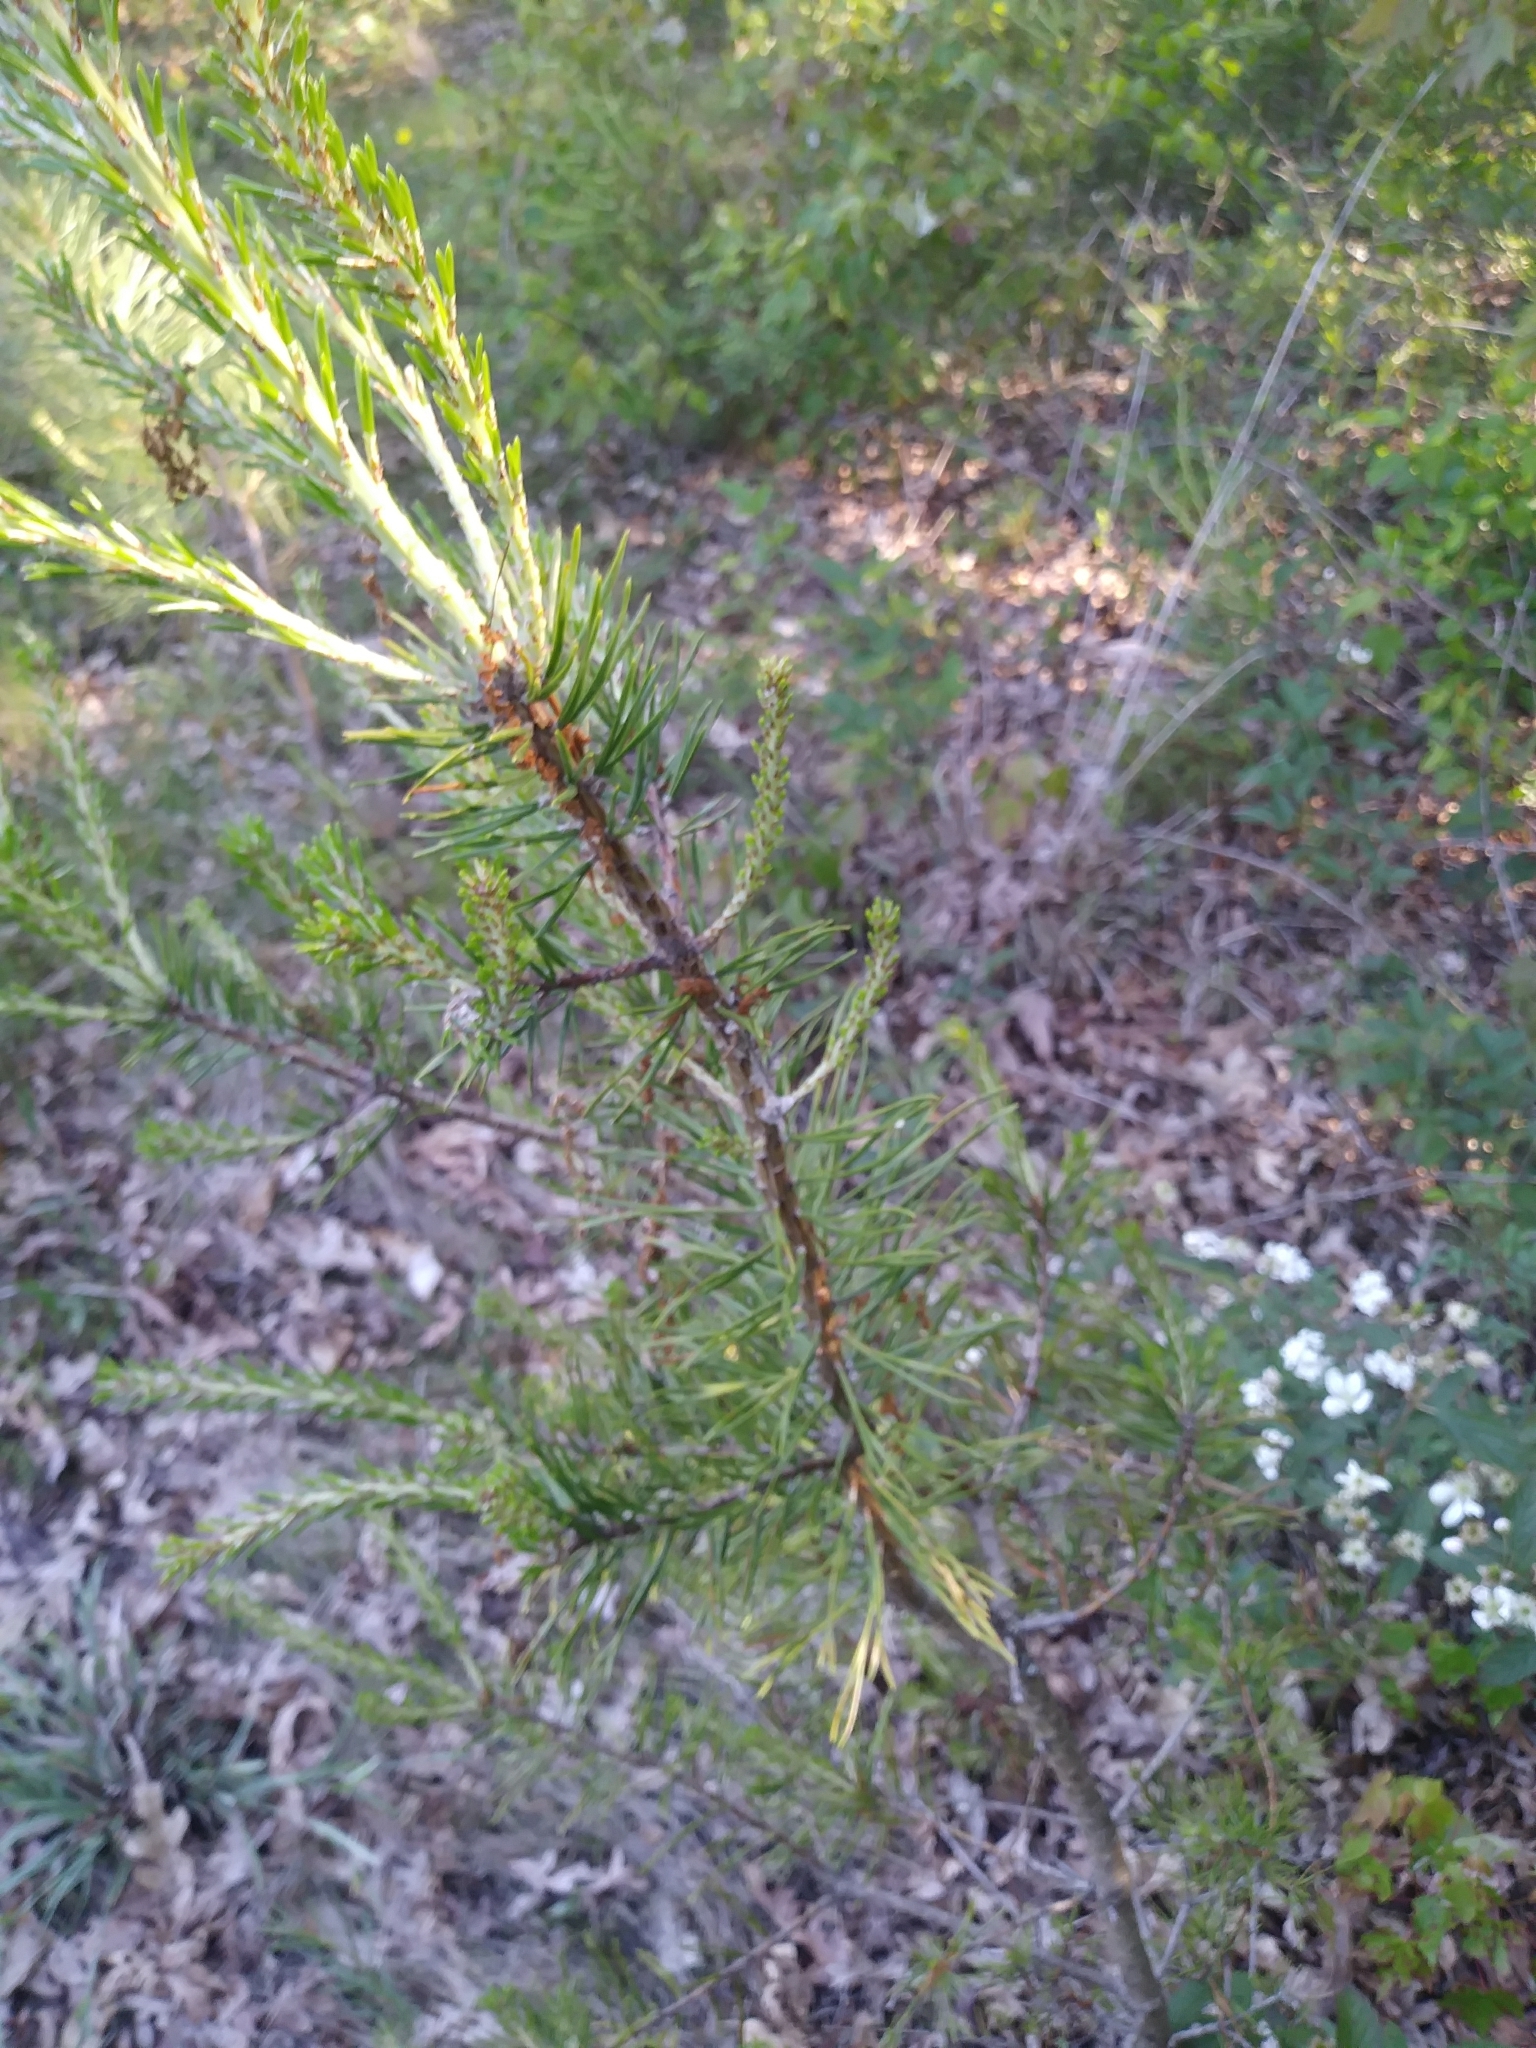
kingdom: Plantae
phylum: Tracheophyta
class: Pinopsida
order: Pinales
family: Pinaceae
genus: Pinus
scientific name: Pinus virginiana
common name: Scrub pine
